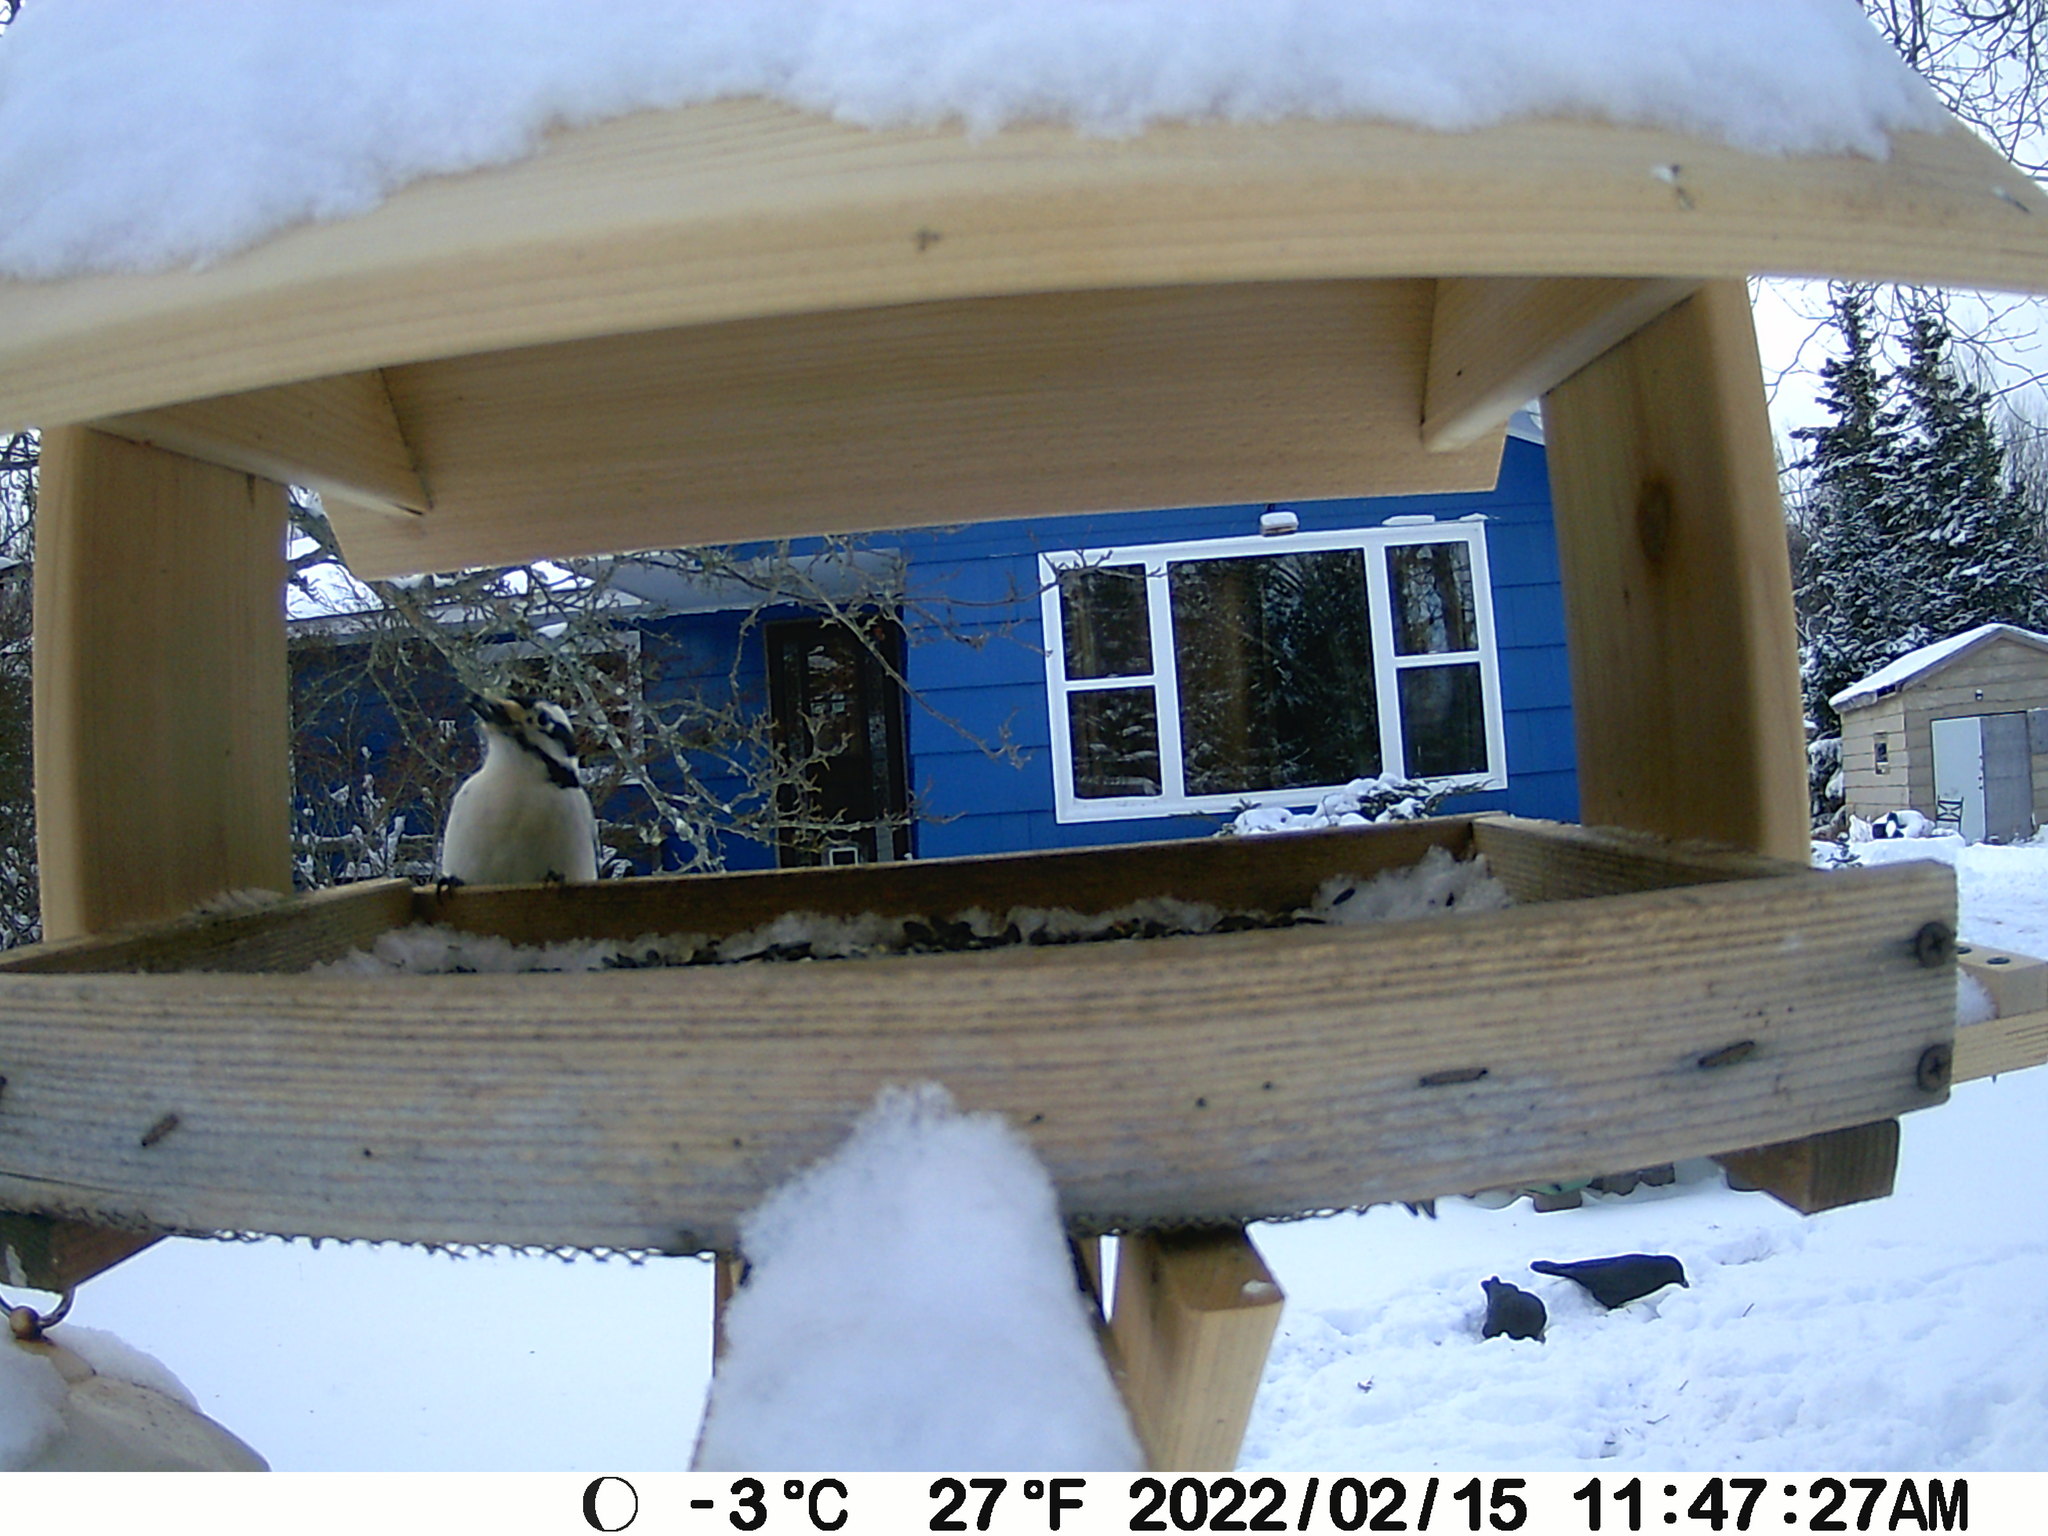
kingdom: Animalia
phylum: Chordata
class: Aves
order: Piciformes
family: Picidae
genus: Leuconotopicus
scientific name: Leuconotopicus villosus
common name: Hairy woodpecker
